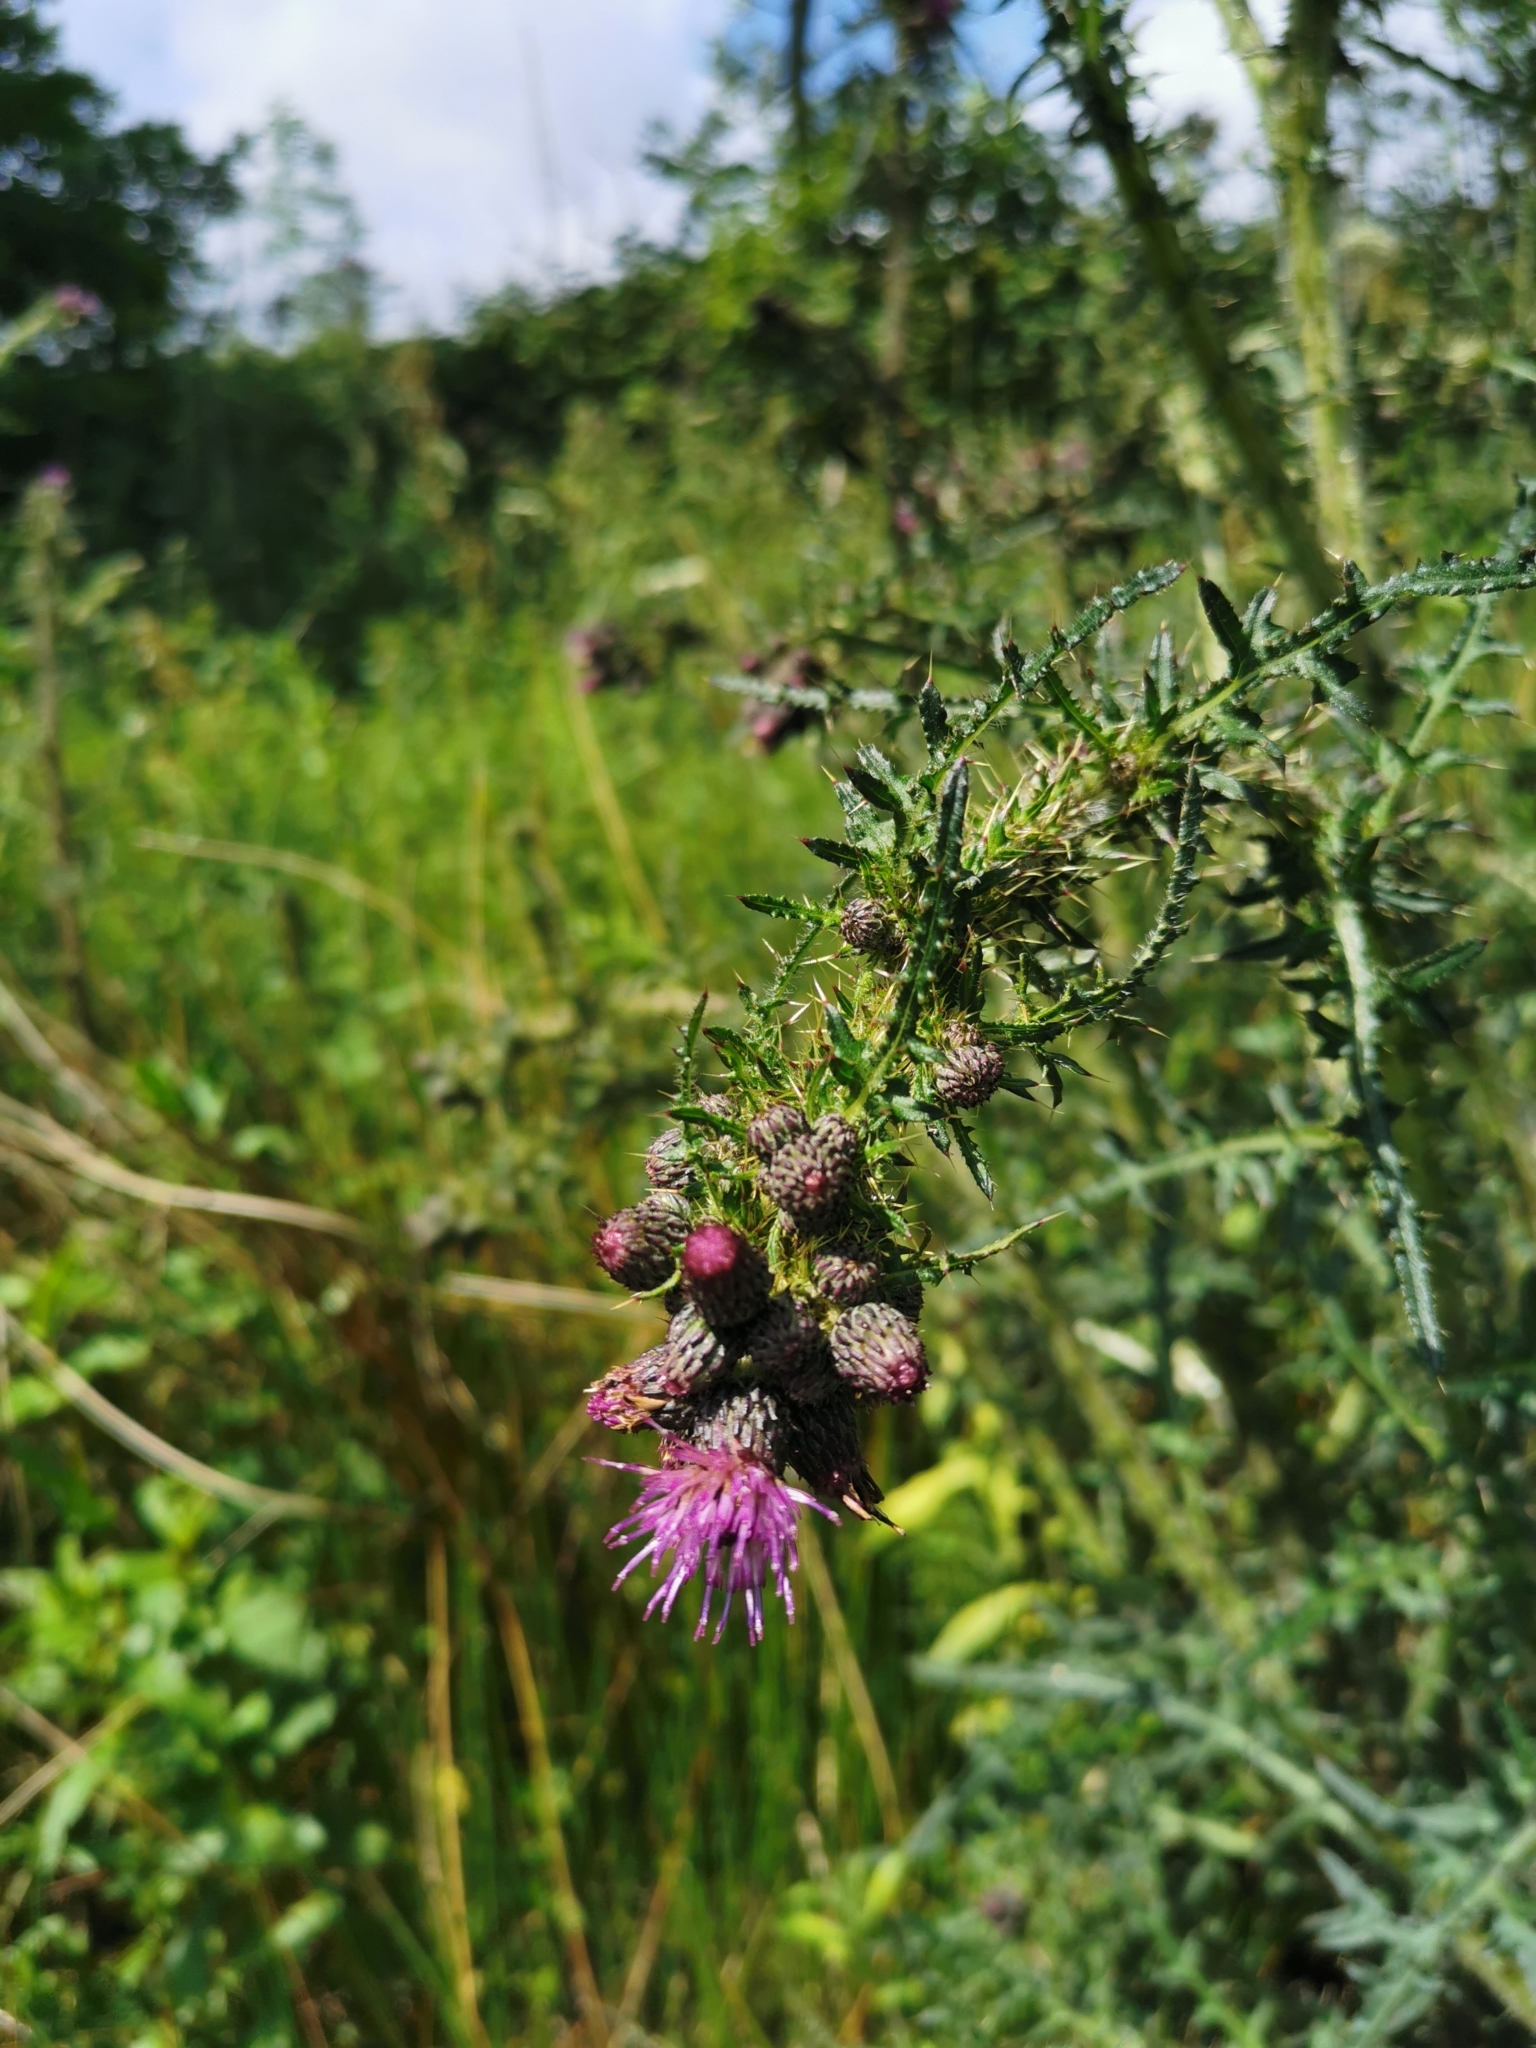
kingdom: Plantae
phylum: Tracheophyta
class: Magnoliopsida
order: Asterales
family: Asteraceae
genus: Cirsium
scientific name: Cirsium palustre
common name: Marsh thistle
